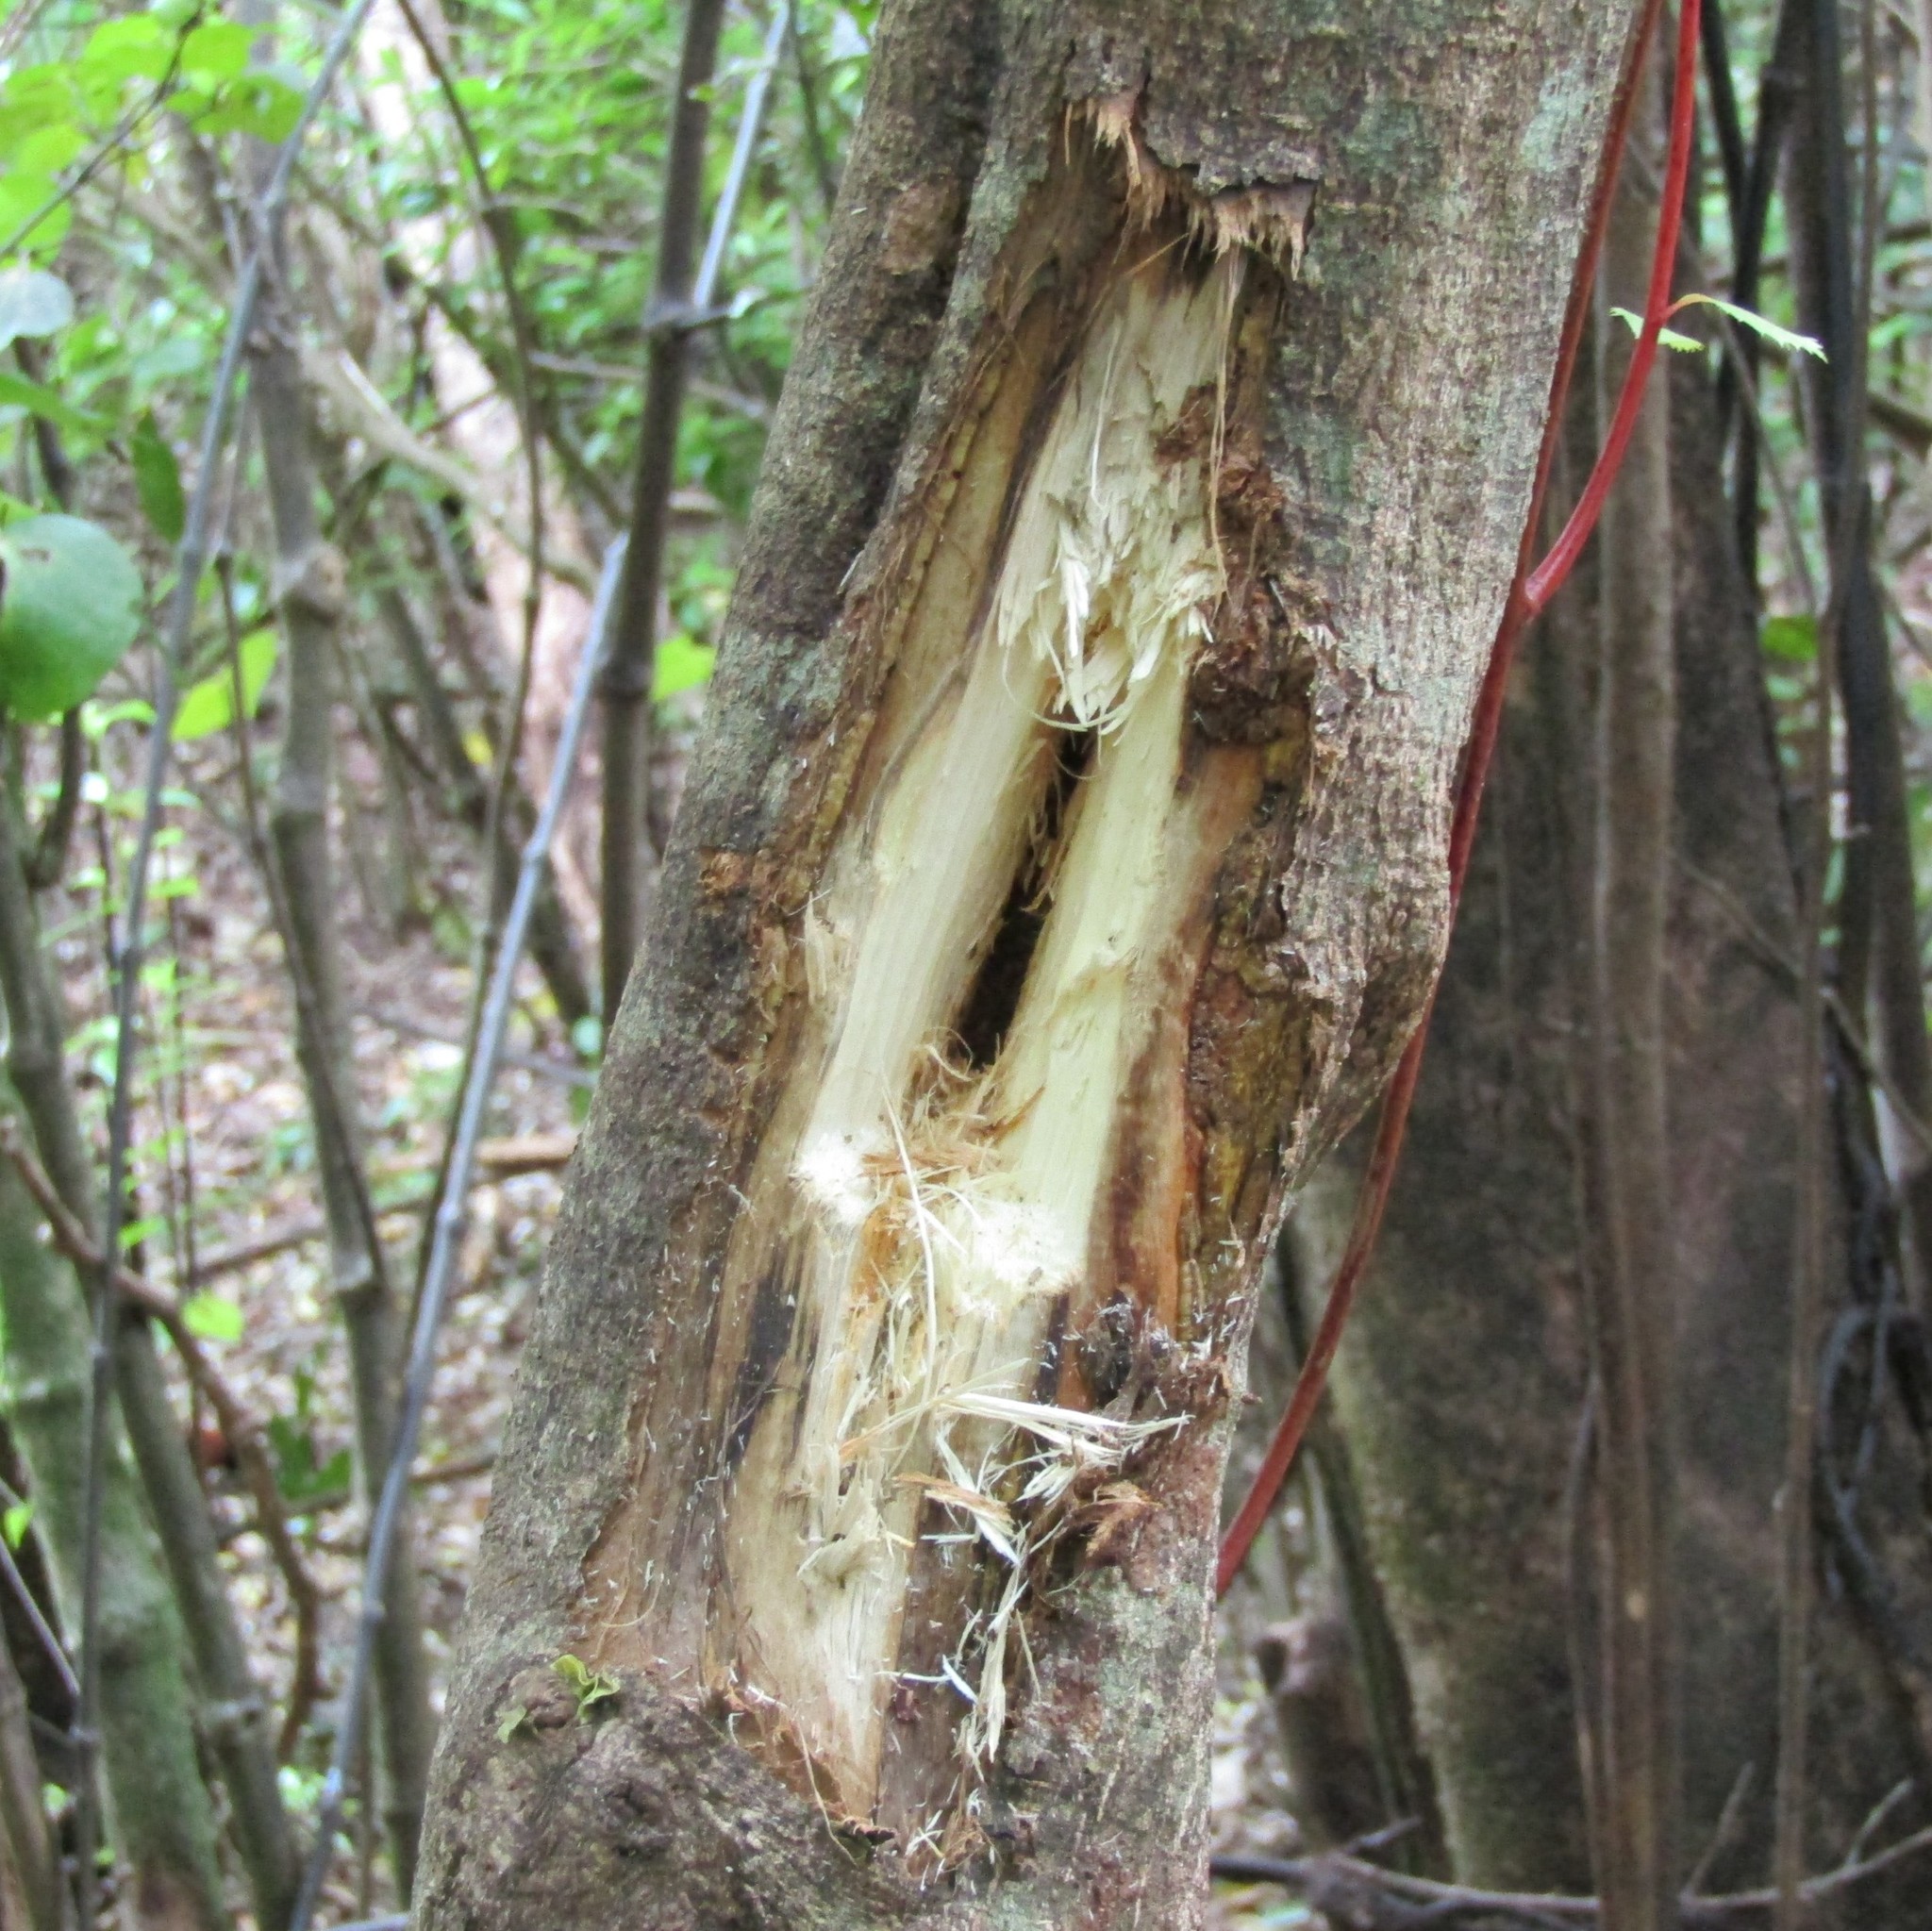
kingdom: Animalia
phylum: Arthropoda
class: Insecta
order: Lepidoptera
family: Hepialidae
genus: Aenetus
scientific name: Aenetus virescens
